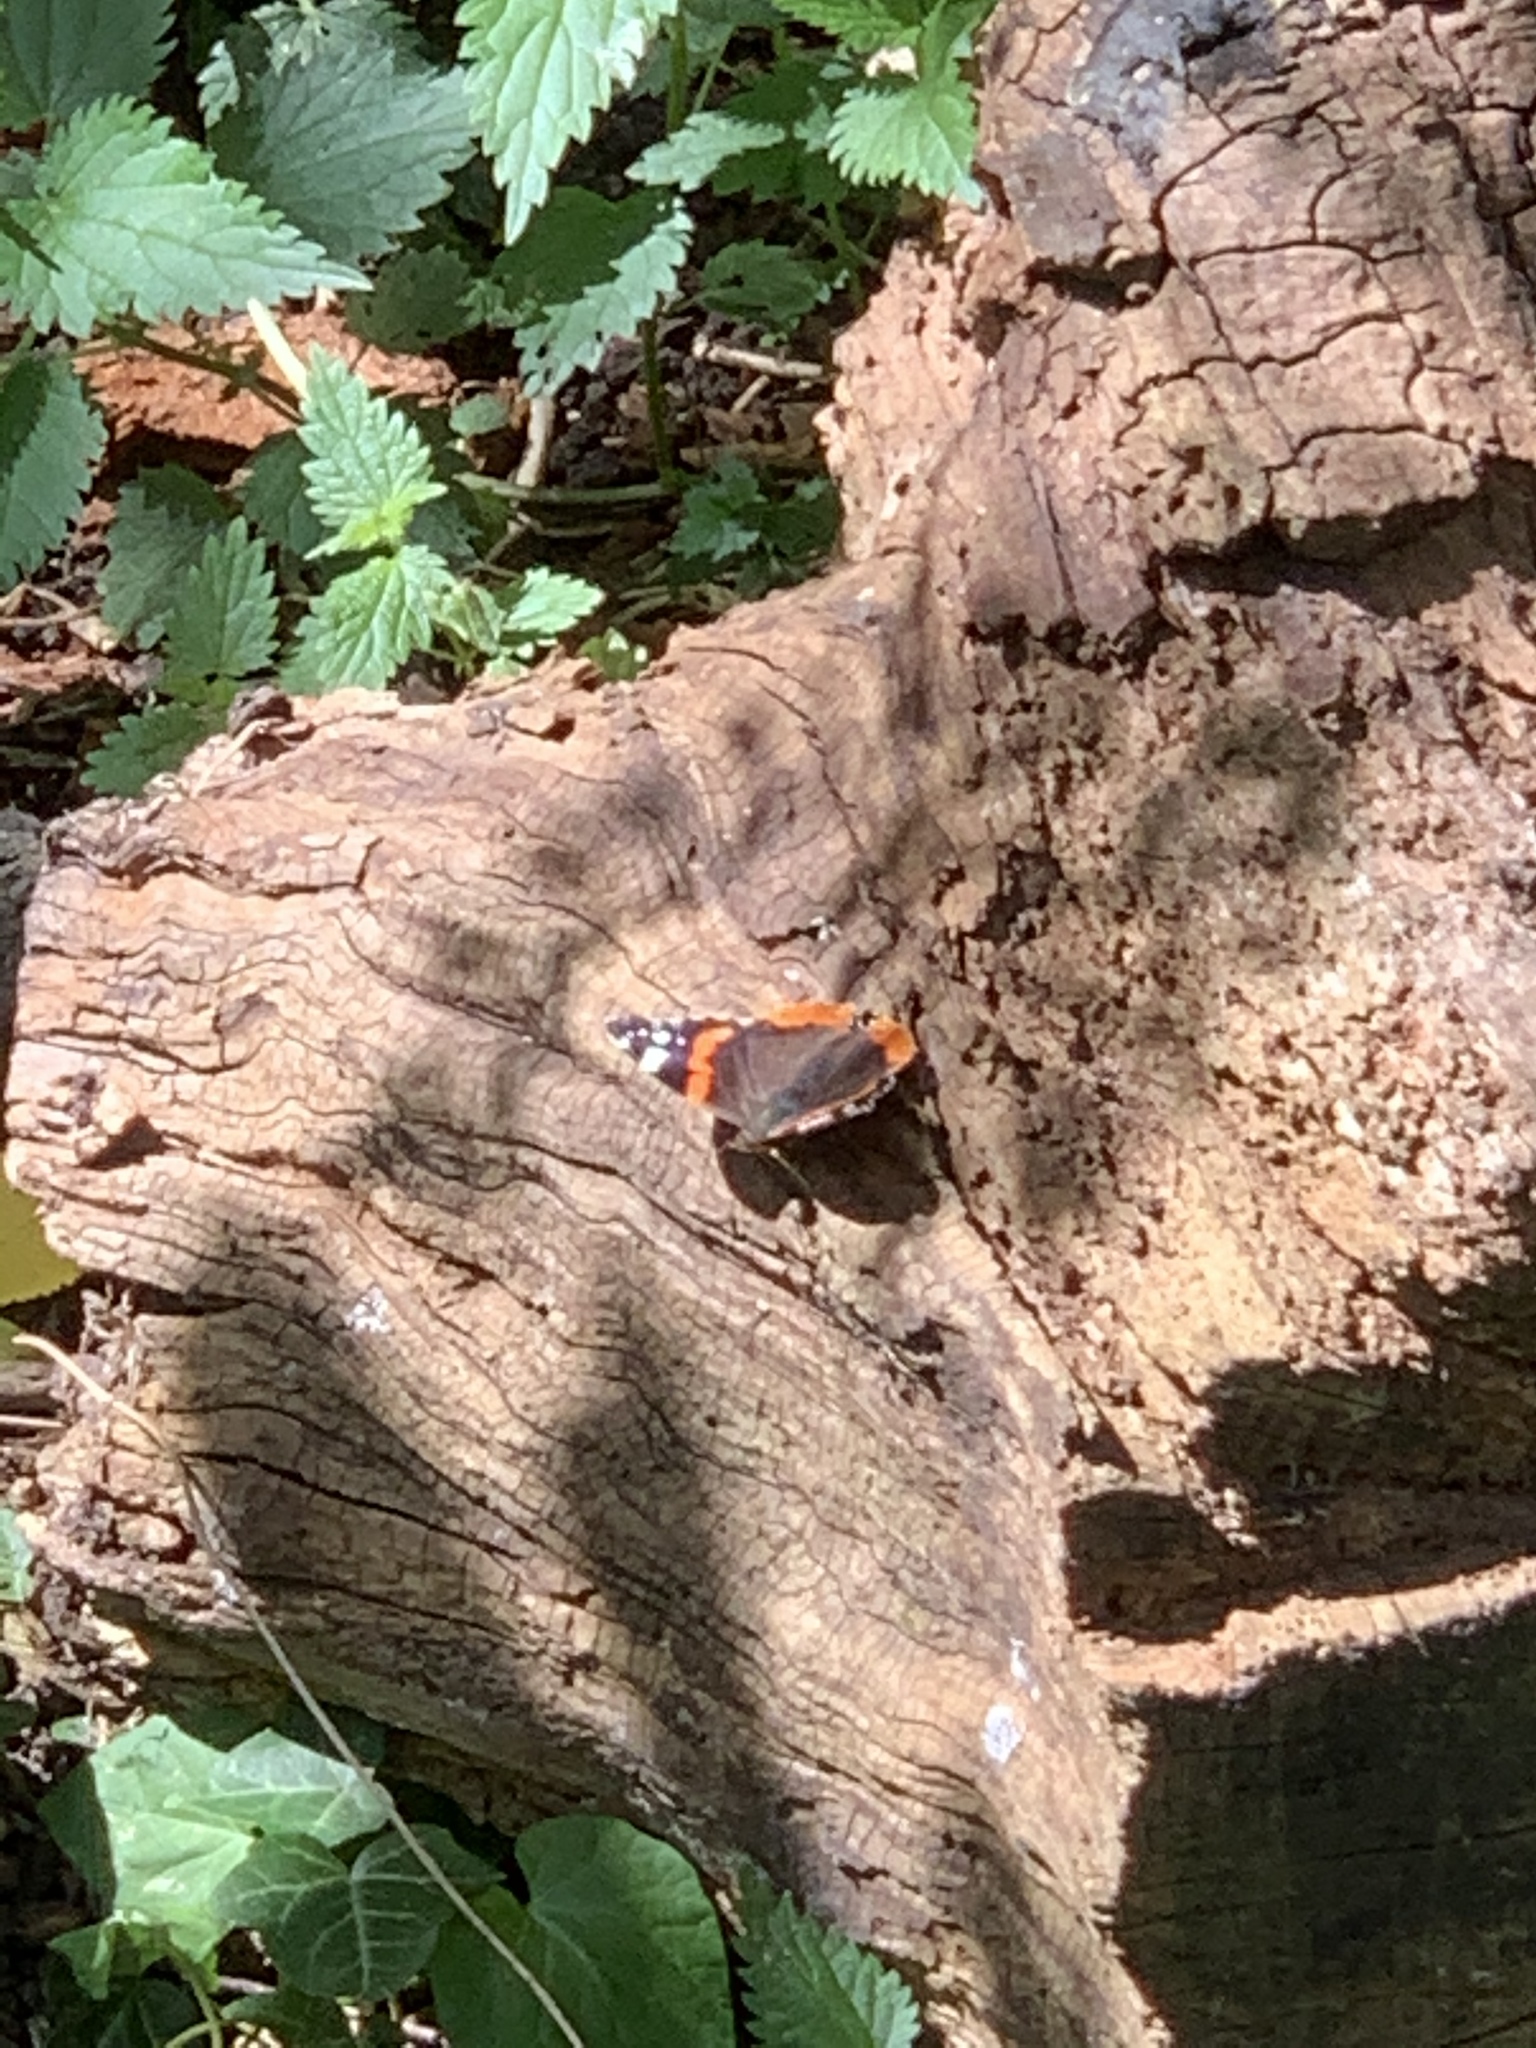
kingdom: Animalia
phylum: Arthropoda
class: Insecta
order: Lepidoptera
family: Nymphalidae
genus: Vanessa
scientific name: Vanessa atalanta
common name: Red admiral
